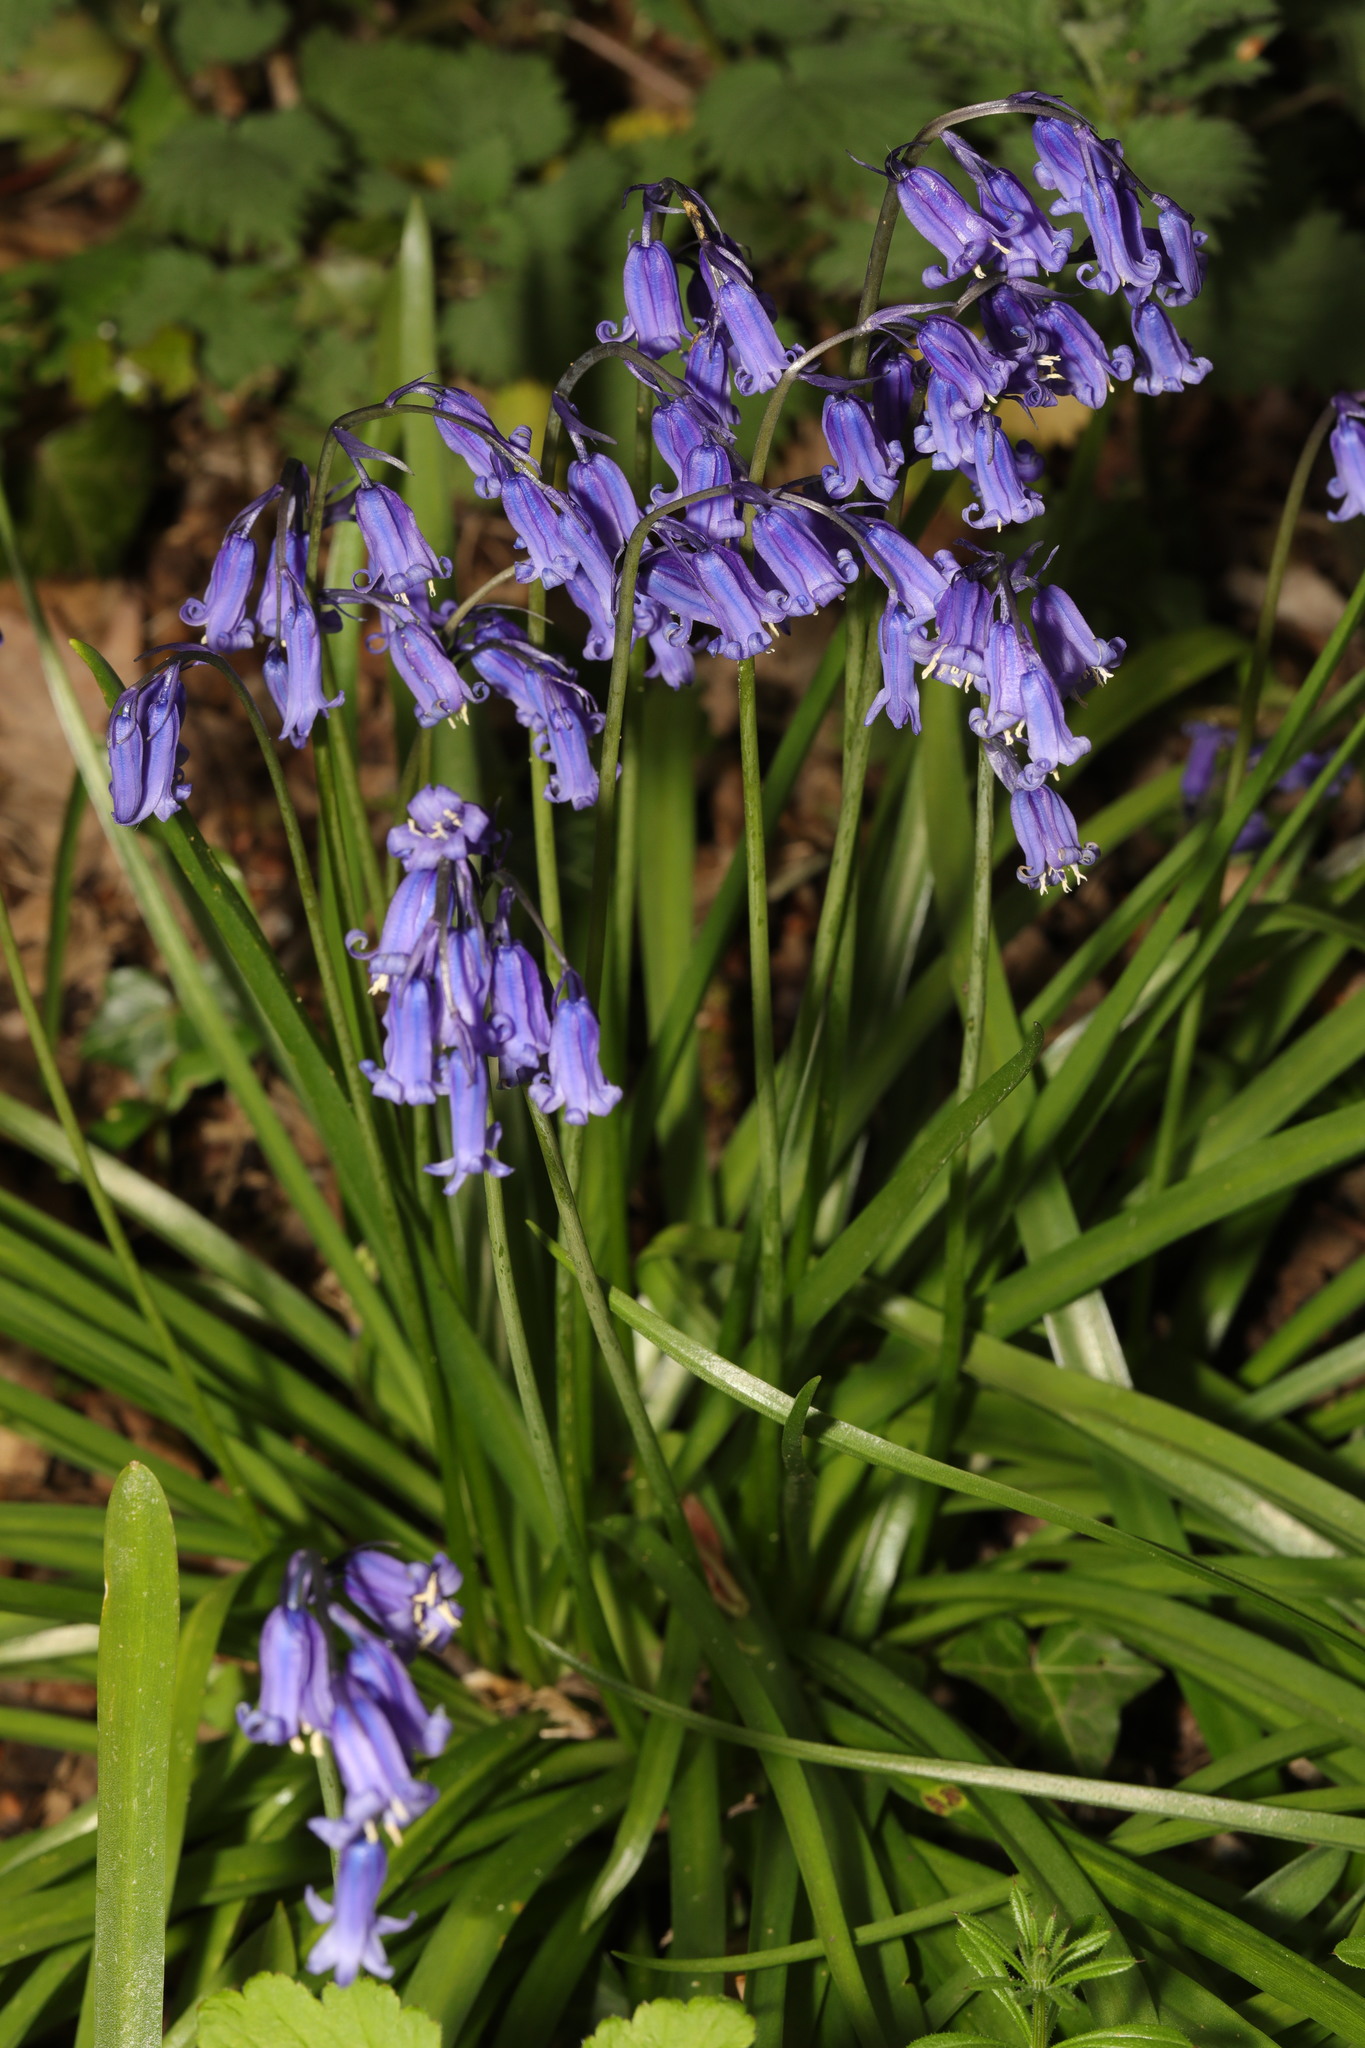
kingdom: Plantae
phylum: Tracheophyta
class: Liliopsida
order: Asparagales
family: Asparagaceae
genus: Hyacinthoides
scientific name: Hyacinthoides non-scripta
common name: Bluebell
